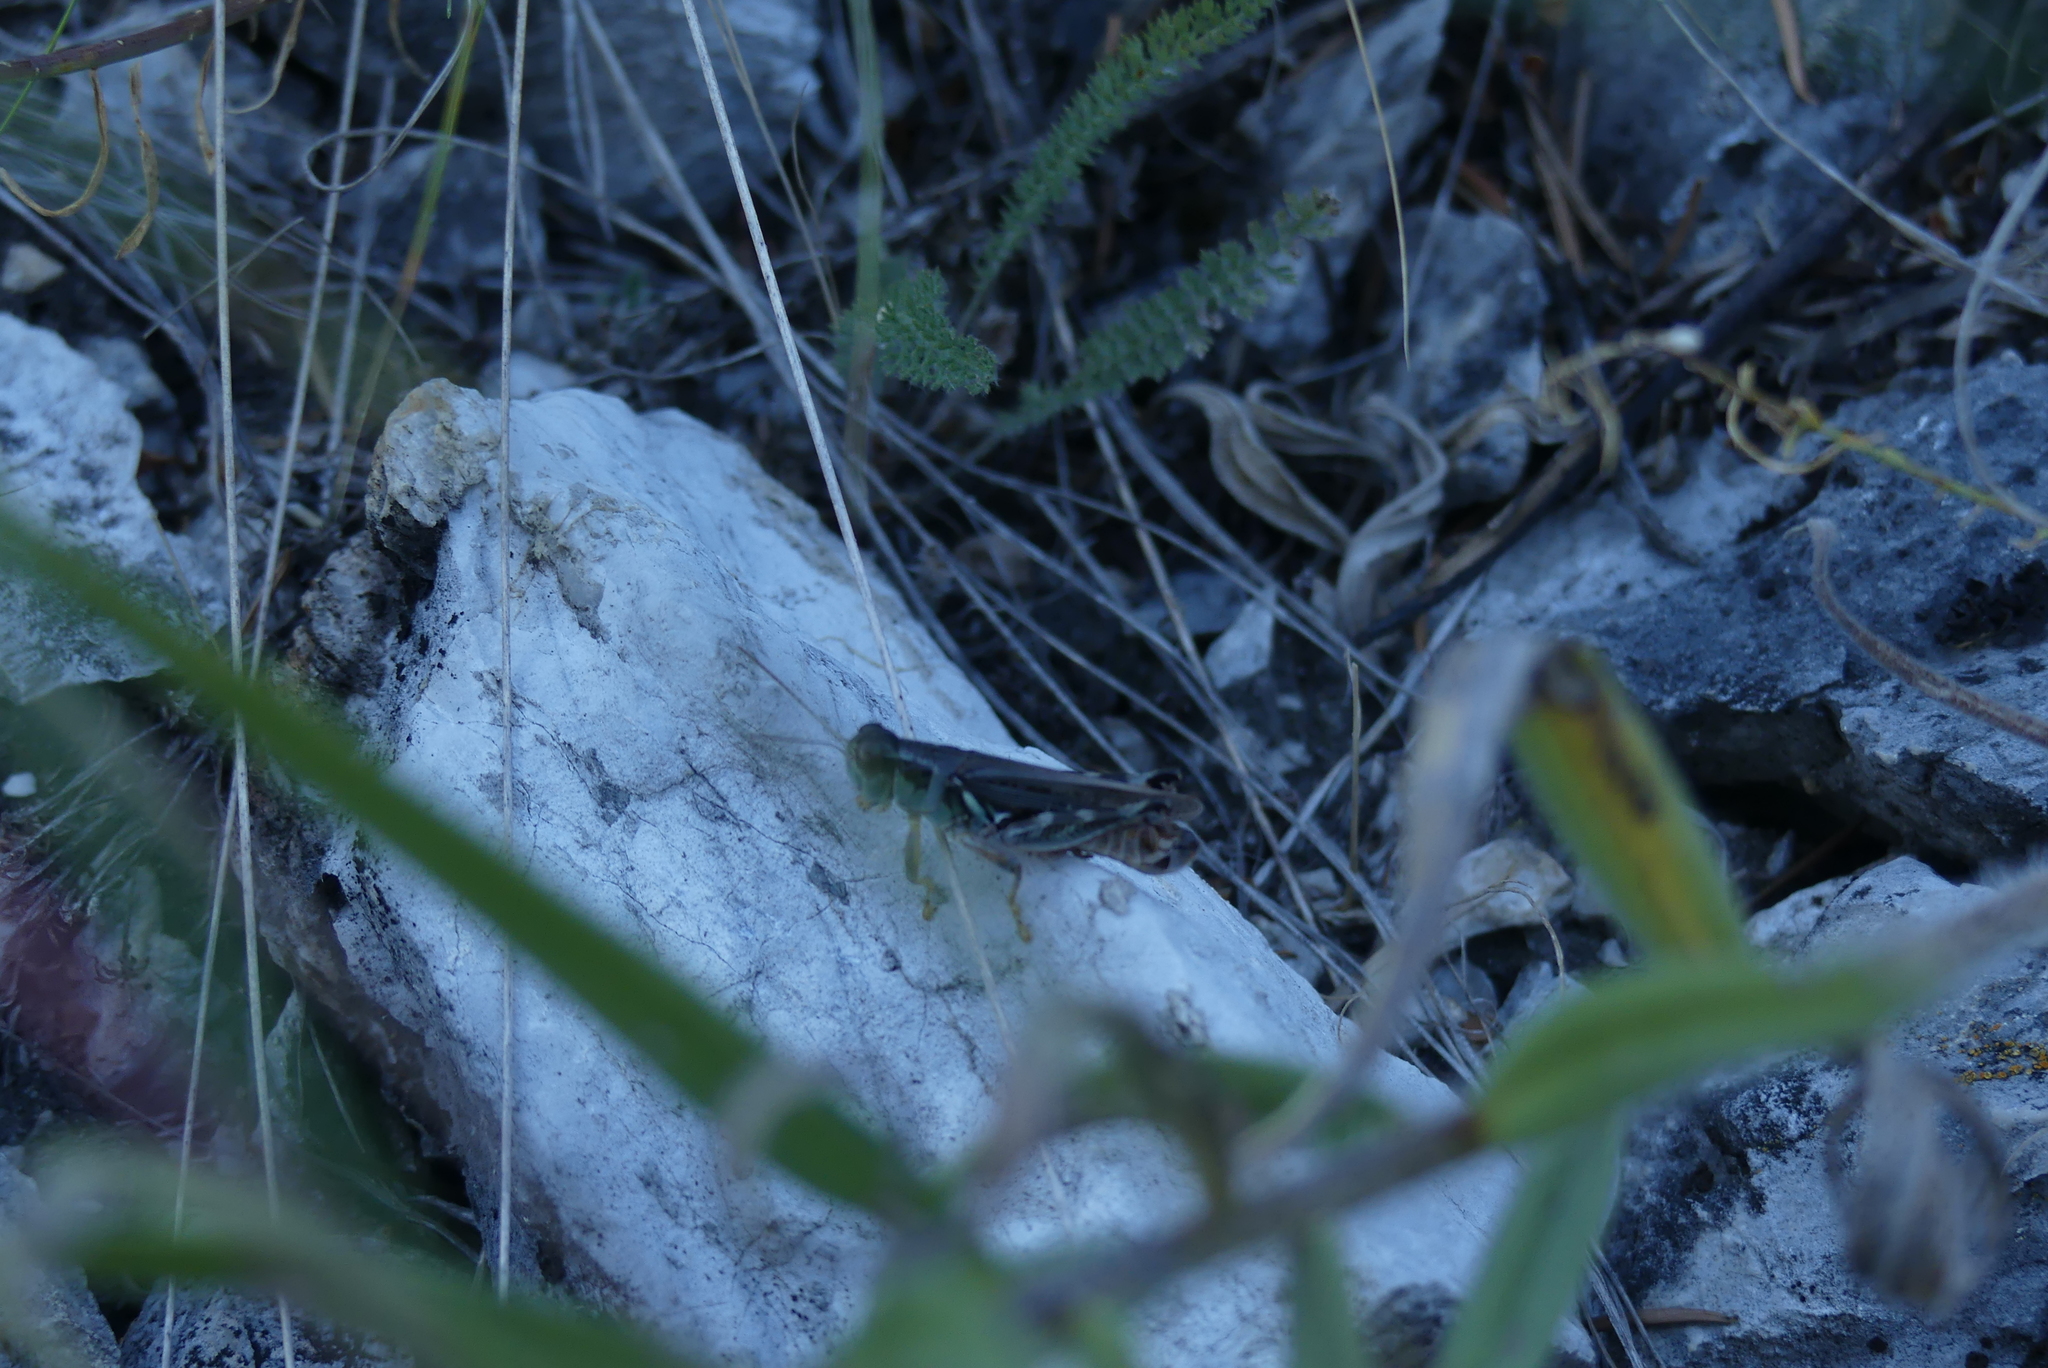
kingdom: Animalia
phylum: Arthropoda
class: Insecta
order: Orthoptera
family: Acrididae
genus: Melanoplus
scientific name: Melanoplus sanguinipes
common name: Migratory grasshopper
